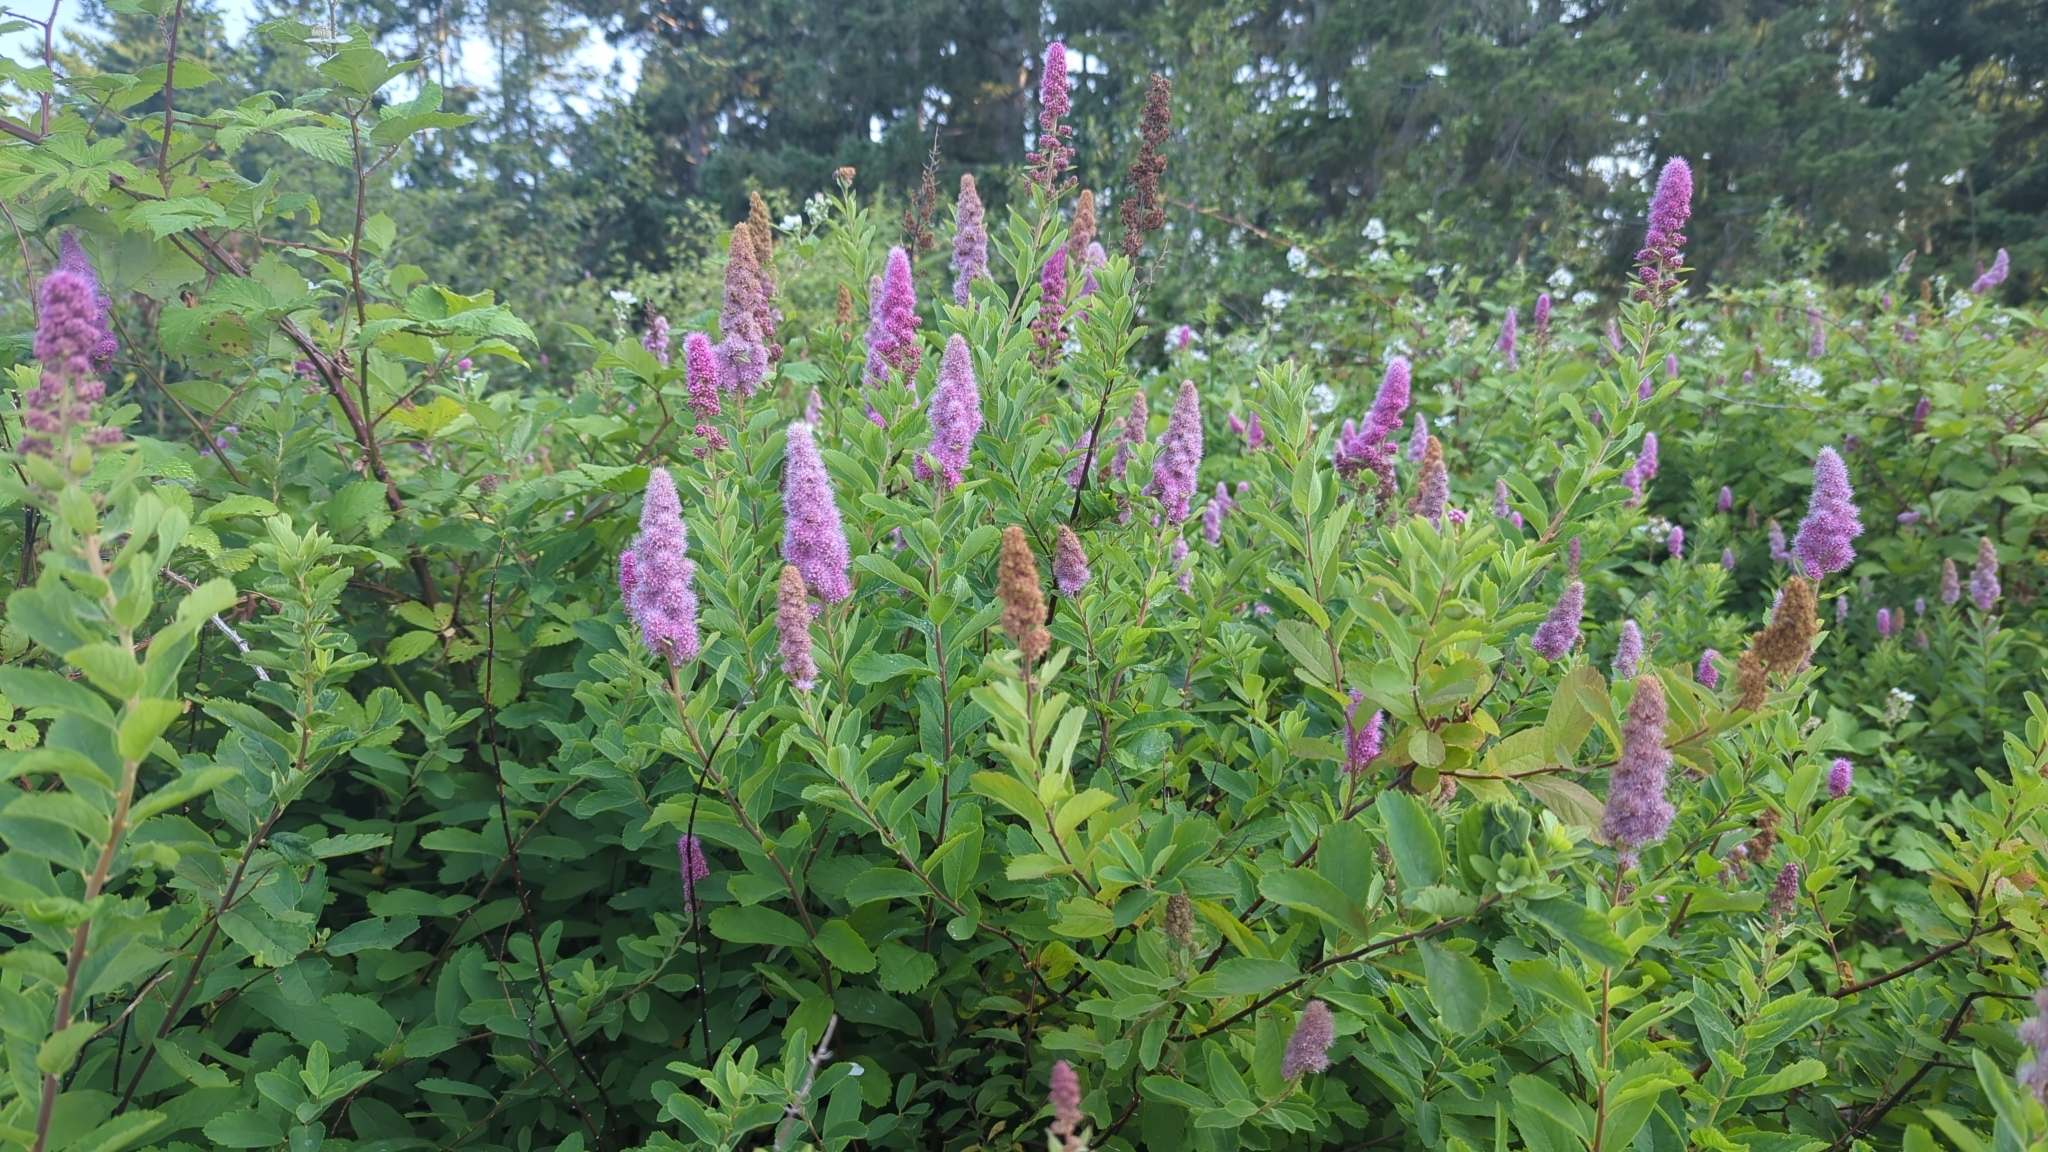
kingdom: Plantae
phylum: Tracheophyta
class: Magnoliopsida
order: Rosales
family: Rosaceae
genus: Spiraea
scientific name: Spiraea douglasii
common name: Steeplebush
